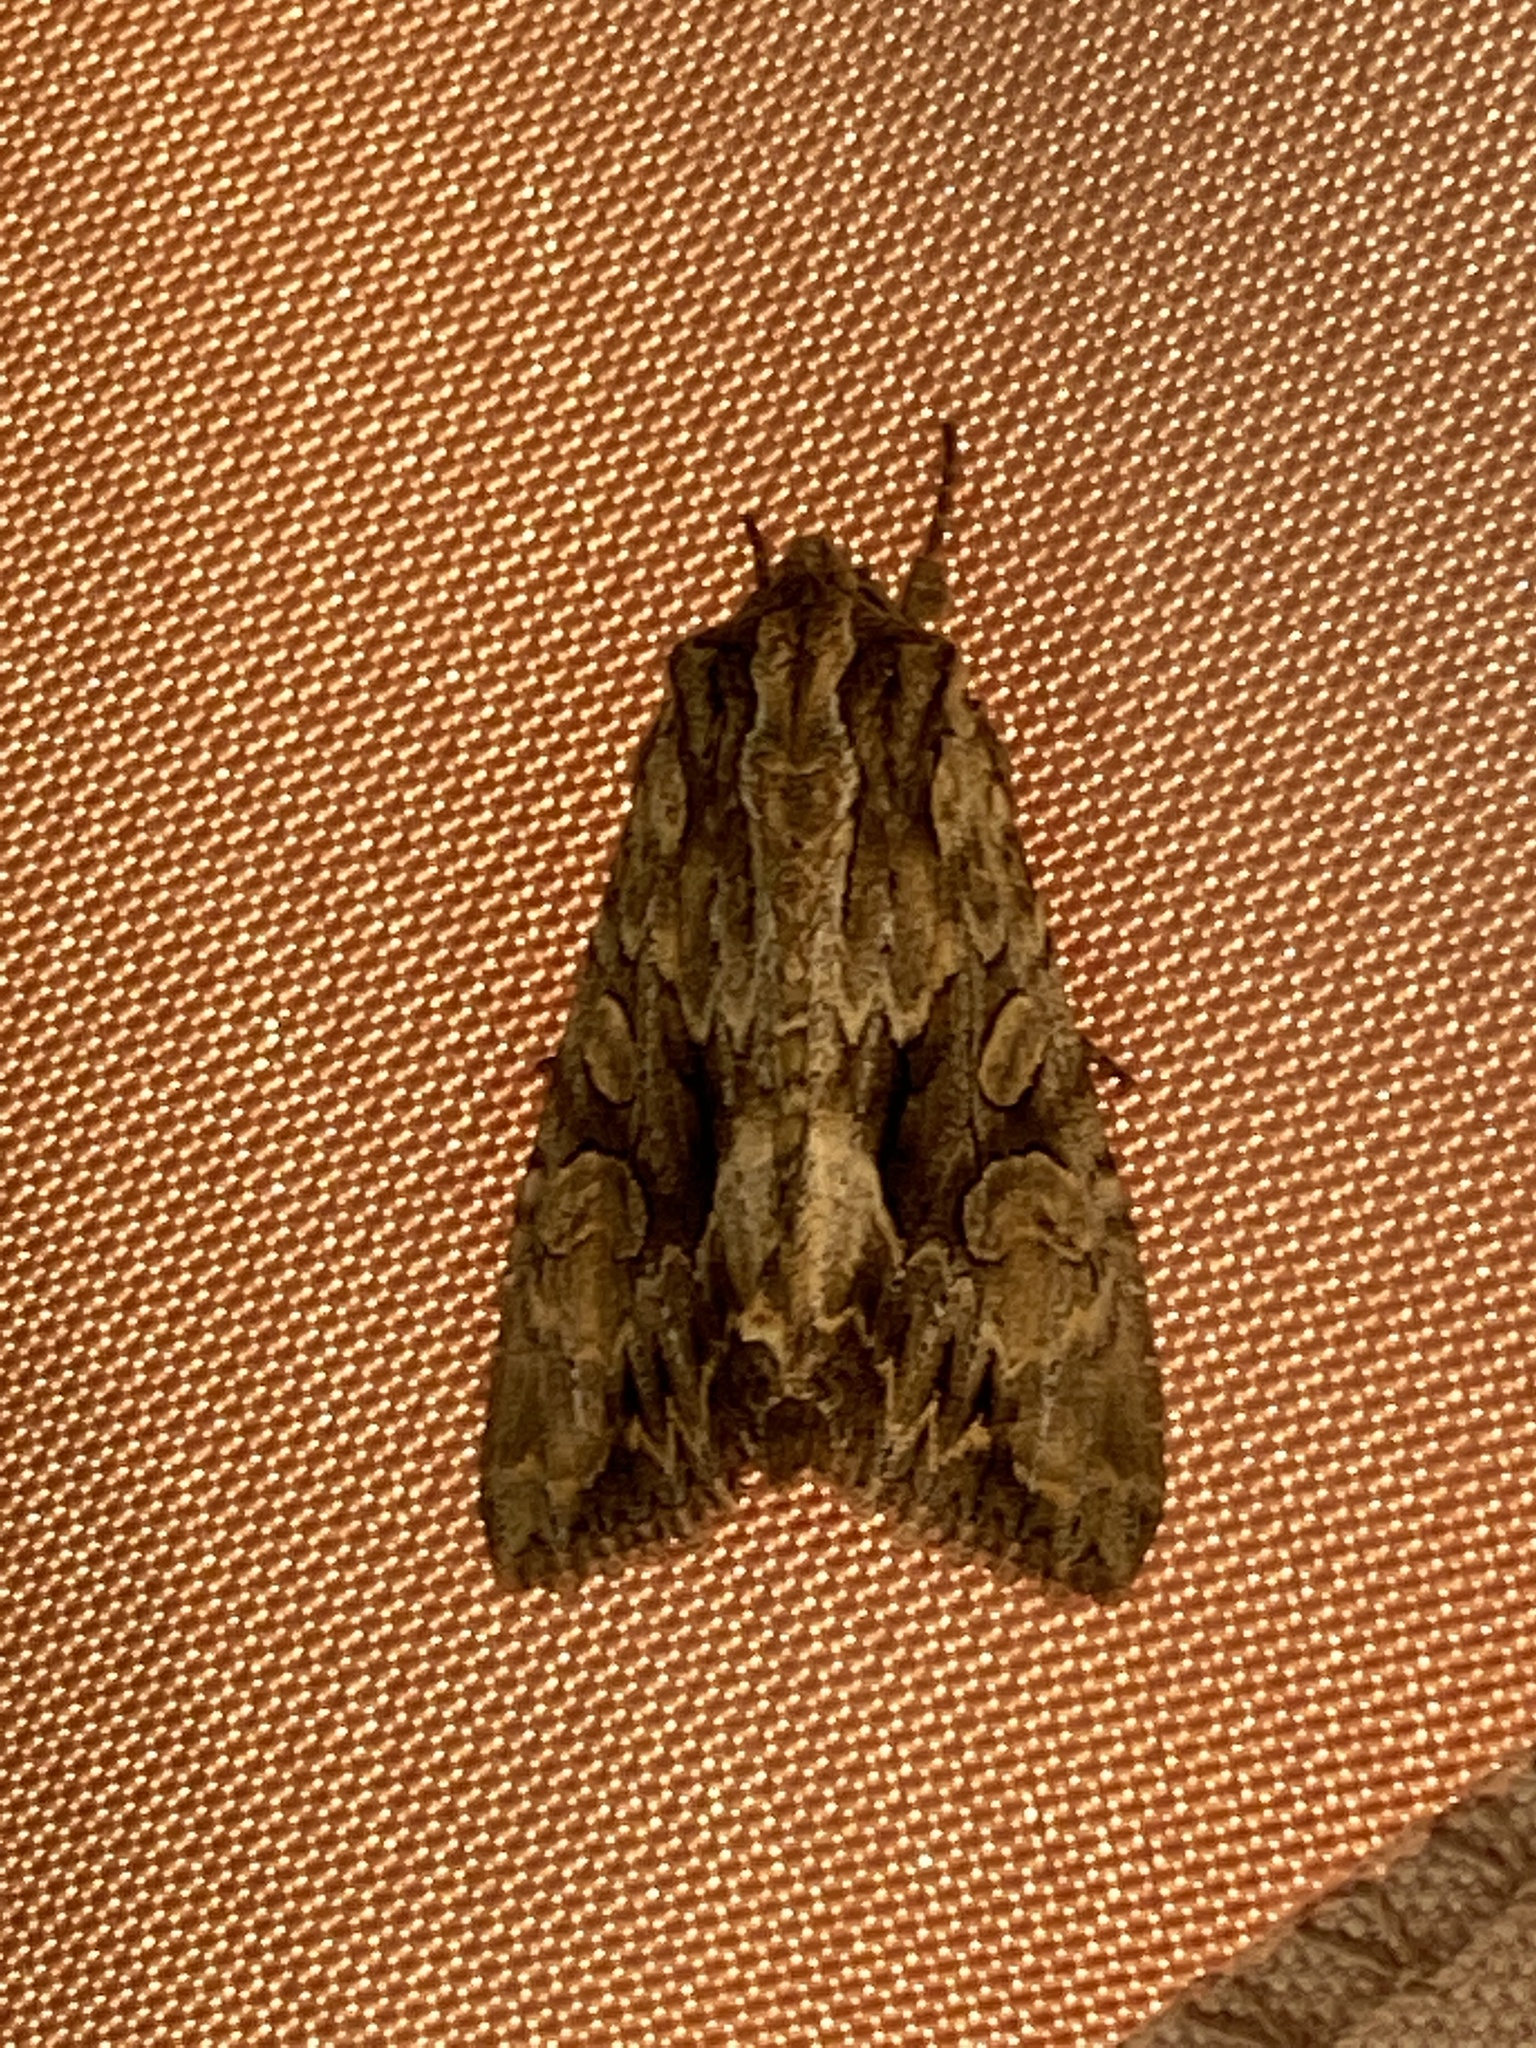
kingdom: Animalia
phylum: Arthropoda
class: Insecta
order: Lepidoptera
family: Noctuidae
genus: Apamea
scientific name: Apamea monoglypha
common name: Dark arches
